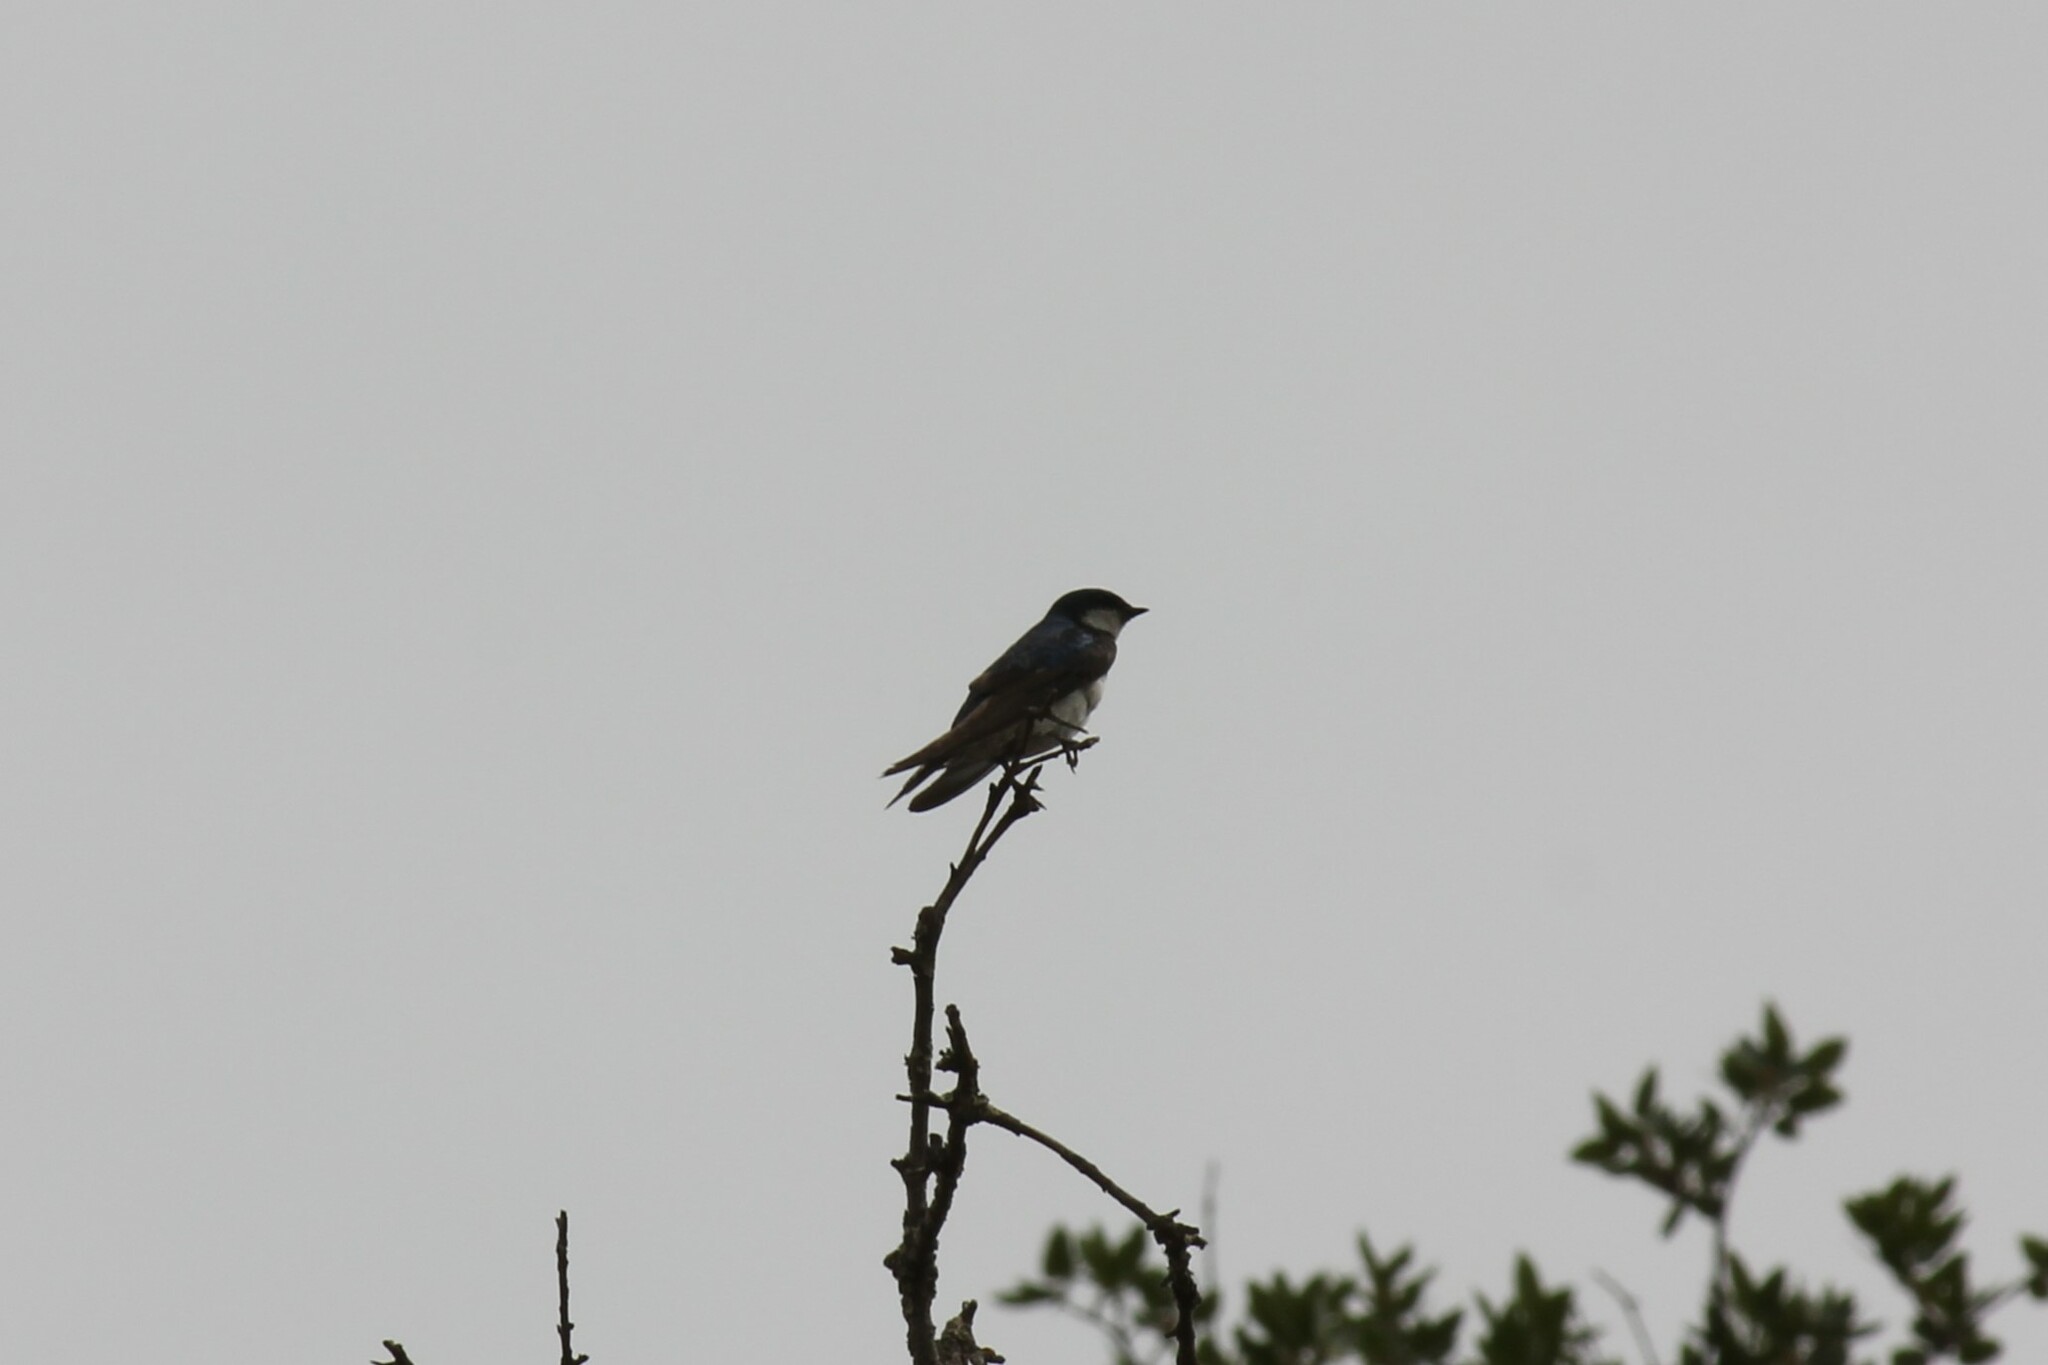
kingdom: Animalia
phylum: Chordata
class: Aves
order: Passeriformes
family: Hirundinidae
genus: Tachycineta
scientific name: Tachycineta bicolor
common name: Tree swallow
